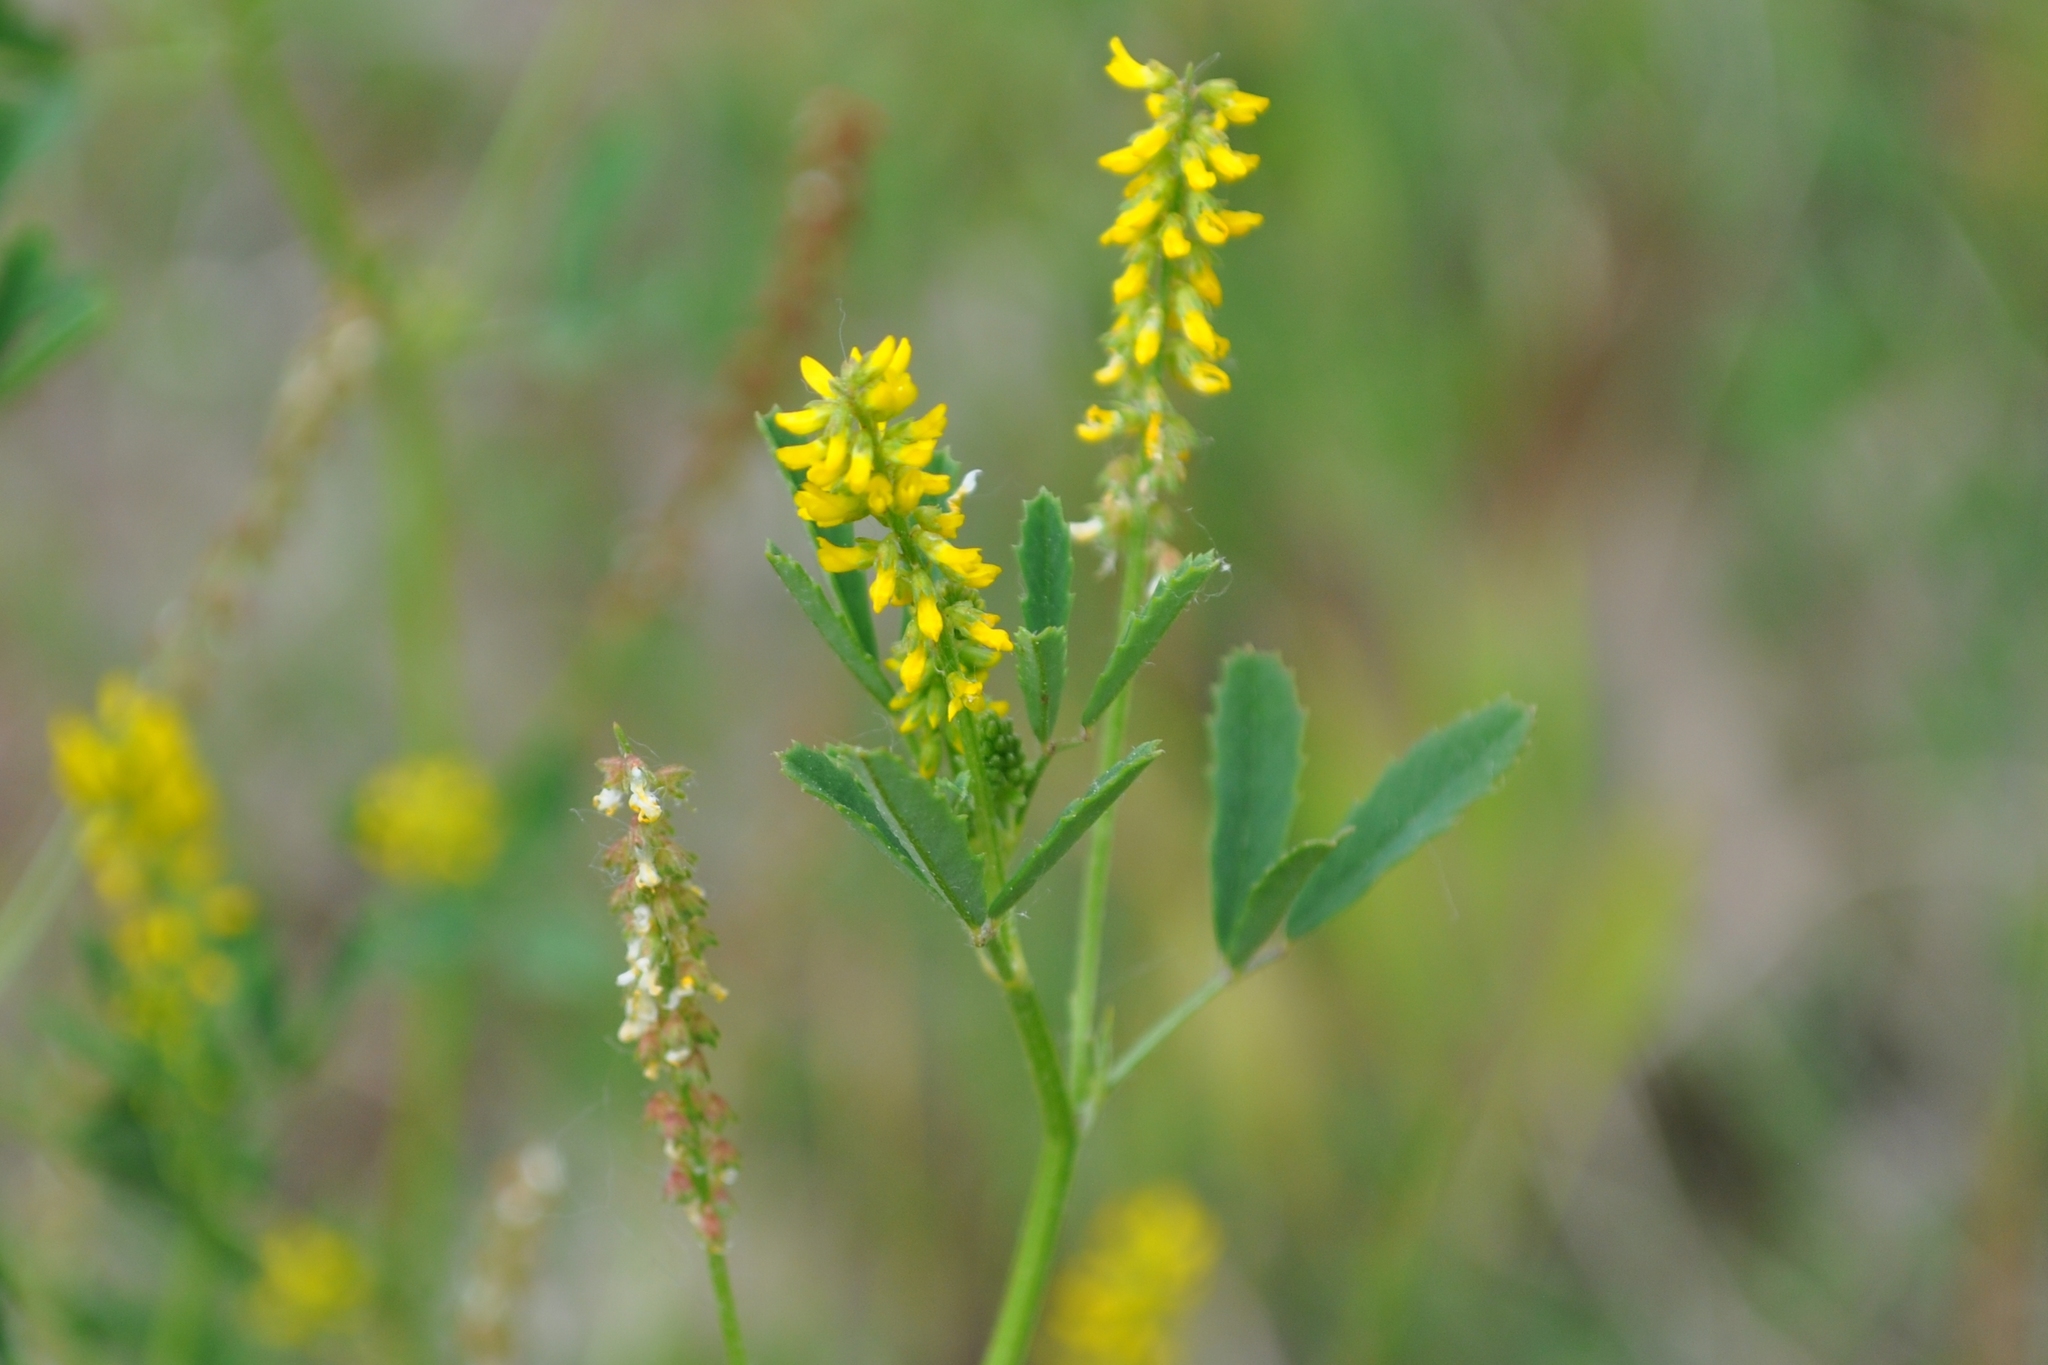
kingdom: Plantae
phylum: Tracheophyta
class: Magnoliopsida
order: Fabales
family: Fabaceae
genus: Melilotus
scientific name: Melilotus indicus
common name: Small melilot
